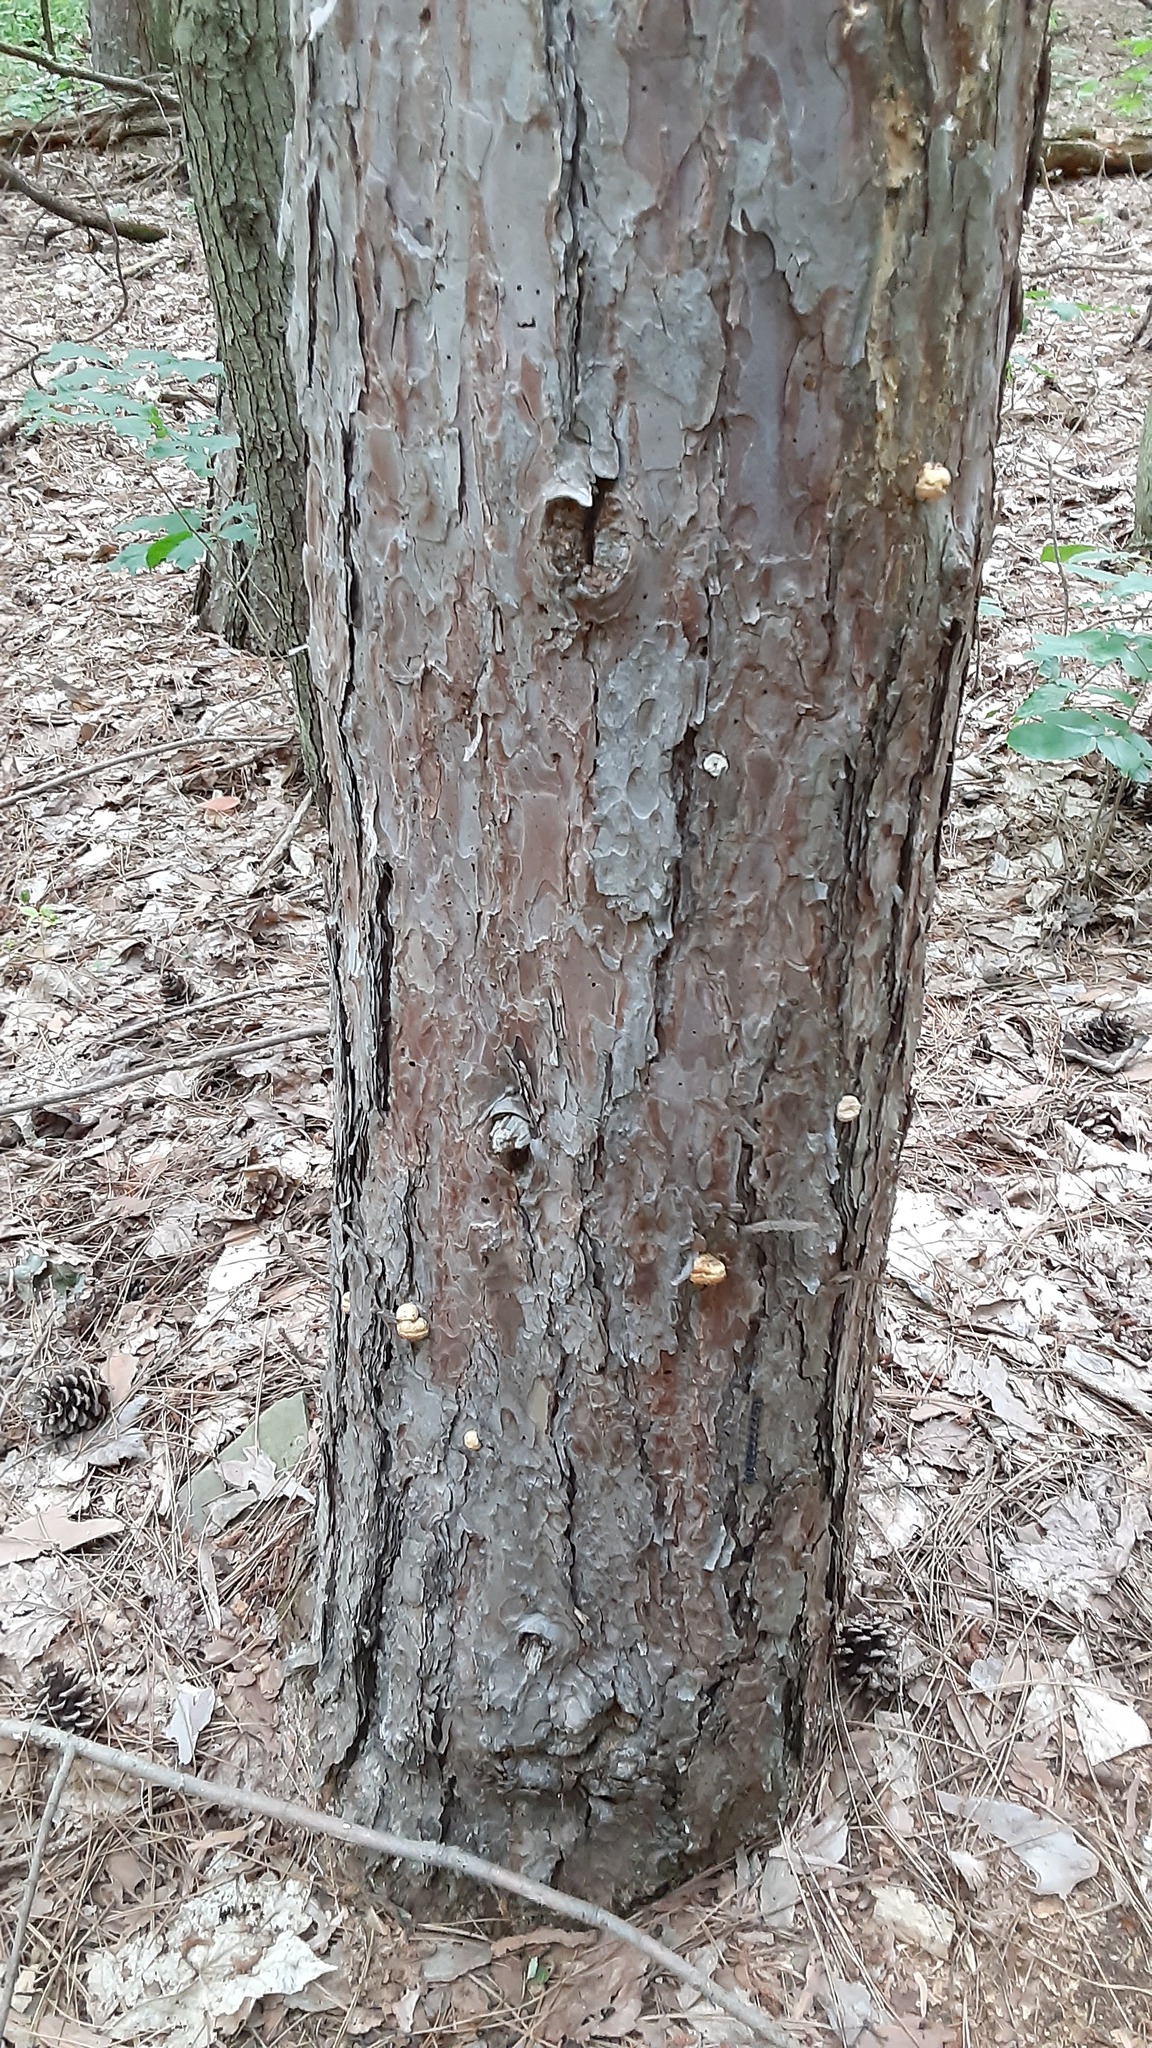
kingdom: Fungi
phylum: Basidiomycota
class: Agaricomycetes
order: Polyporales
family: Polyporaceae
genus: Cryptoporus
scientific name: Cryptoporus volvatus
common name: Veiled polypore
